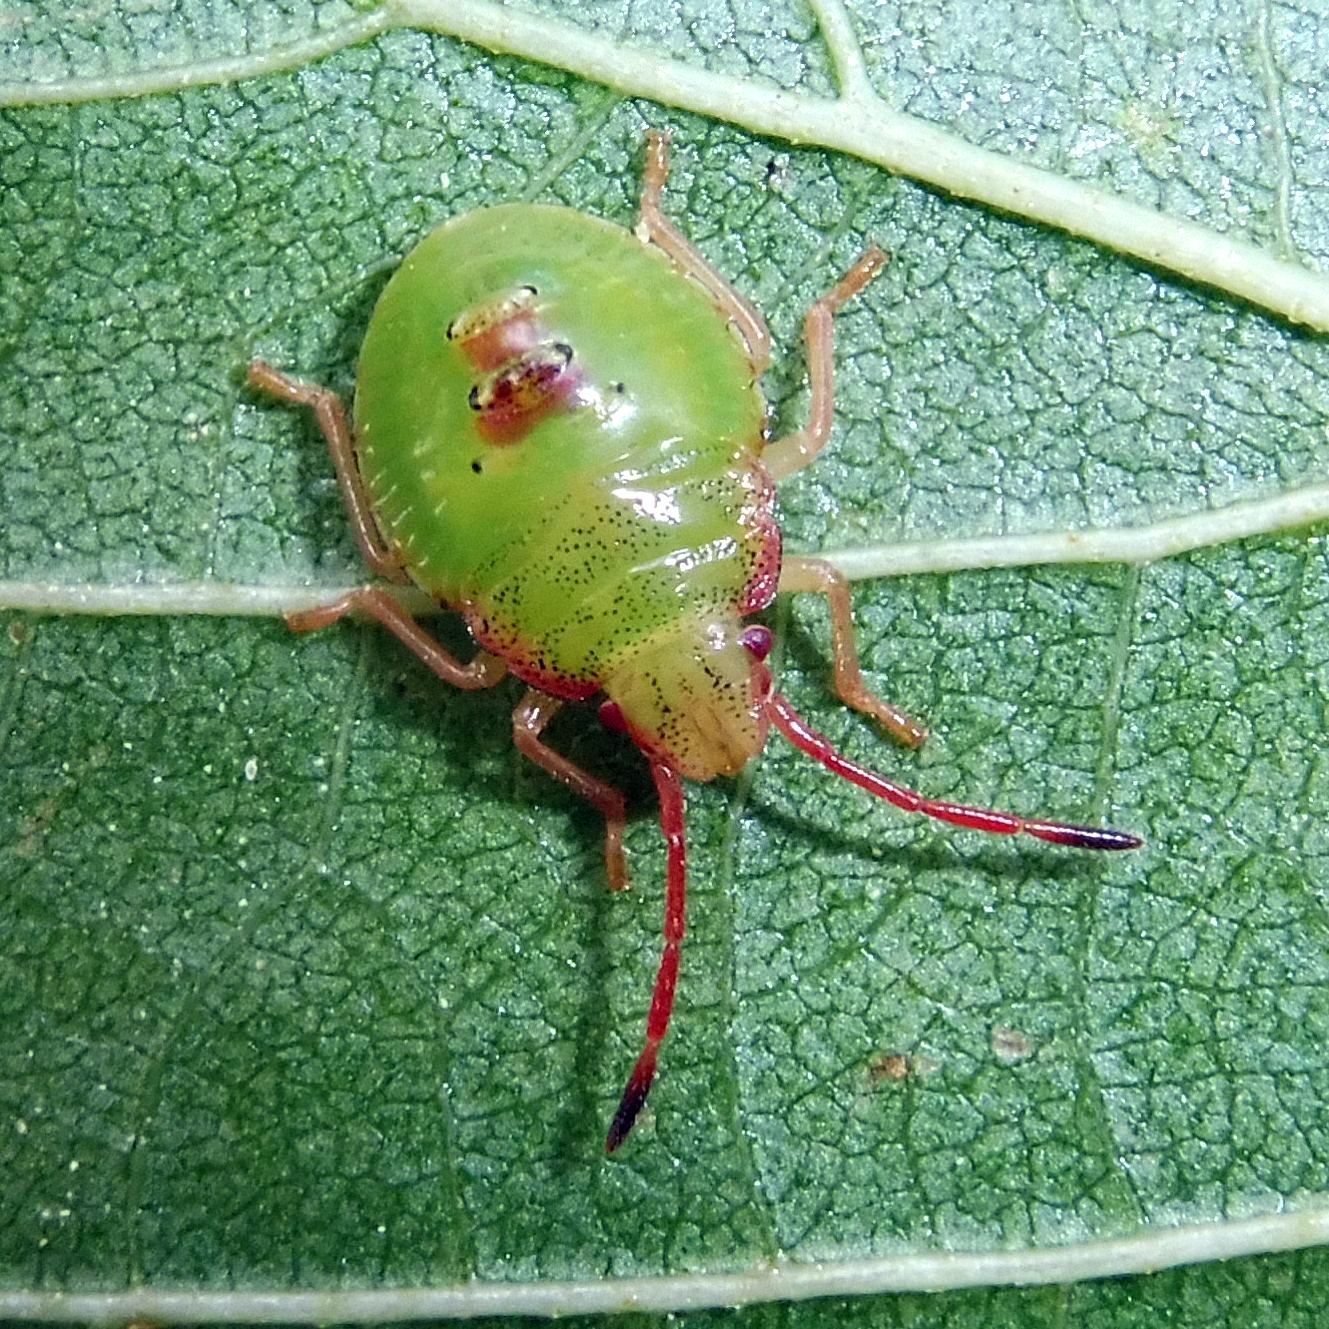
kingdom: Animalia
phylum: Arthropoda
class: Insecta
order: Hemiptera
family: Acanthosomatidae
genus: Acanthosoma
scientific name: Acanthosoma haemorrhoidale
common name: Hawthorn shieldbug
